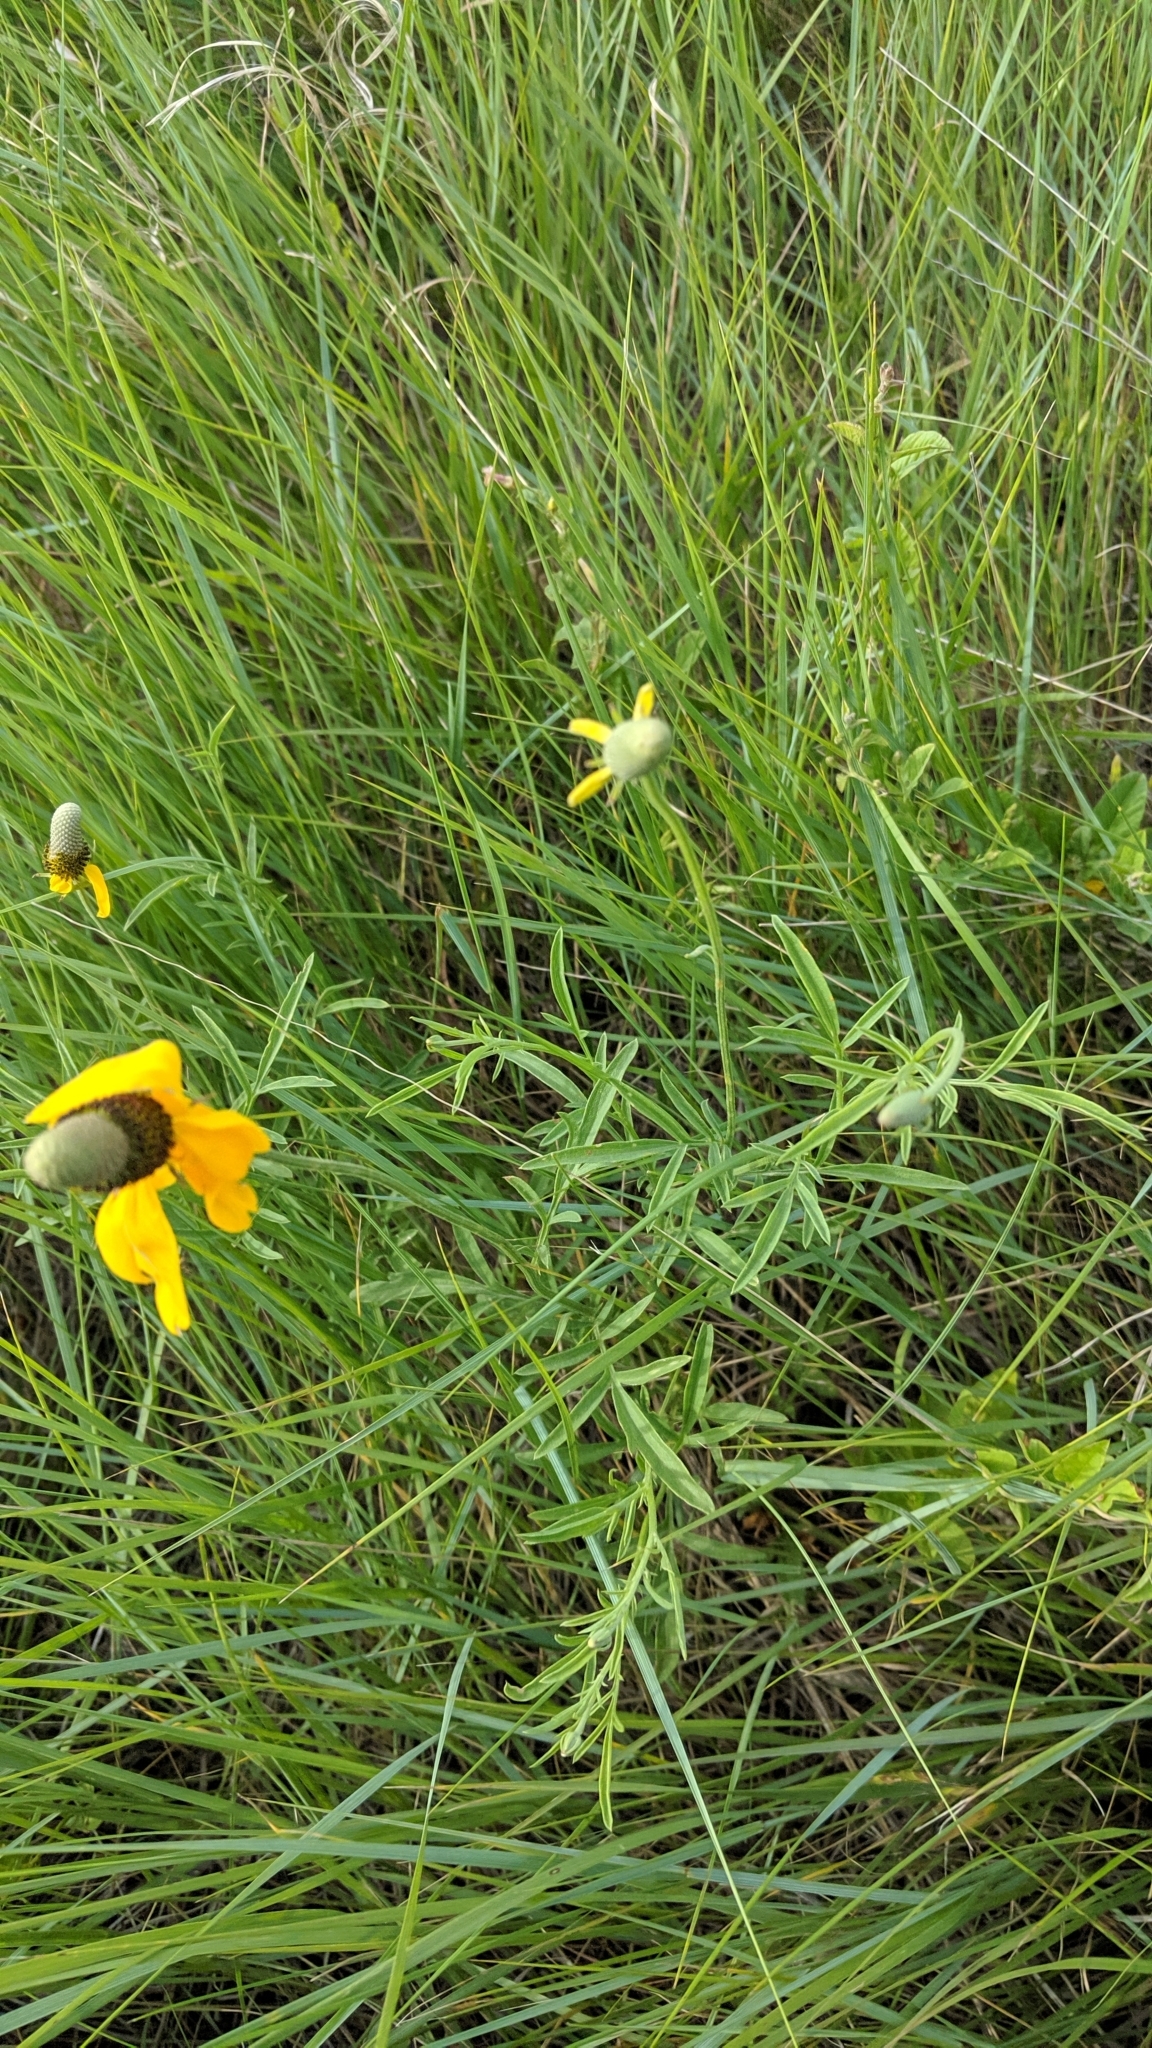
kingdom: Plantae
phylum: Tracheophyta
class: Magnoliopsida
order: Asterales
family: Asteraceae
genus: Ratibida
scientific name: Ratibida columnifera
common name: Prairie coneflower
